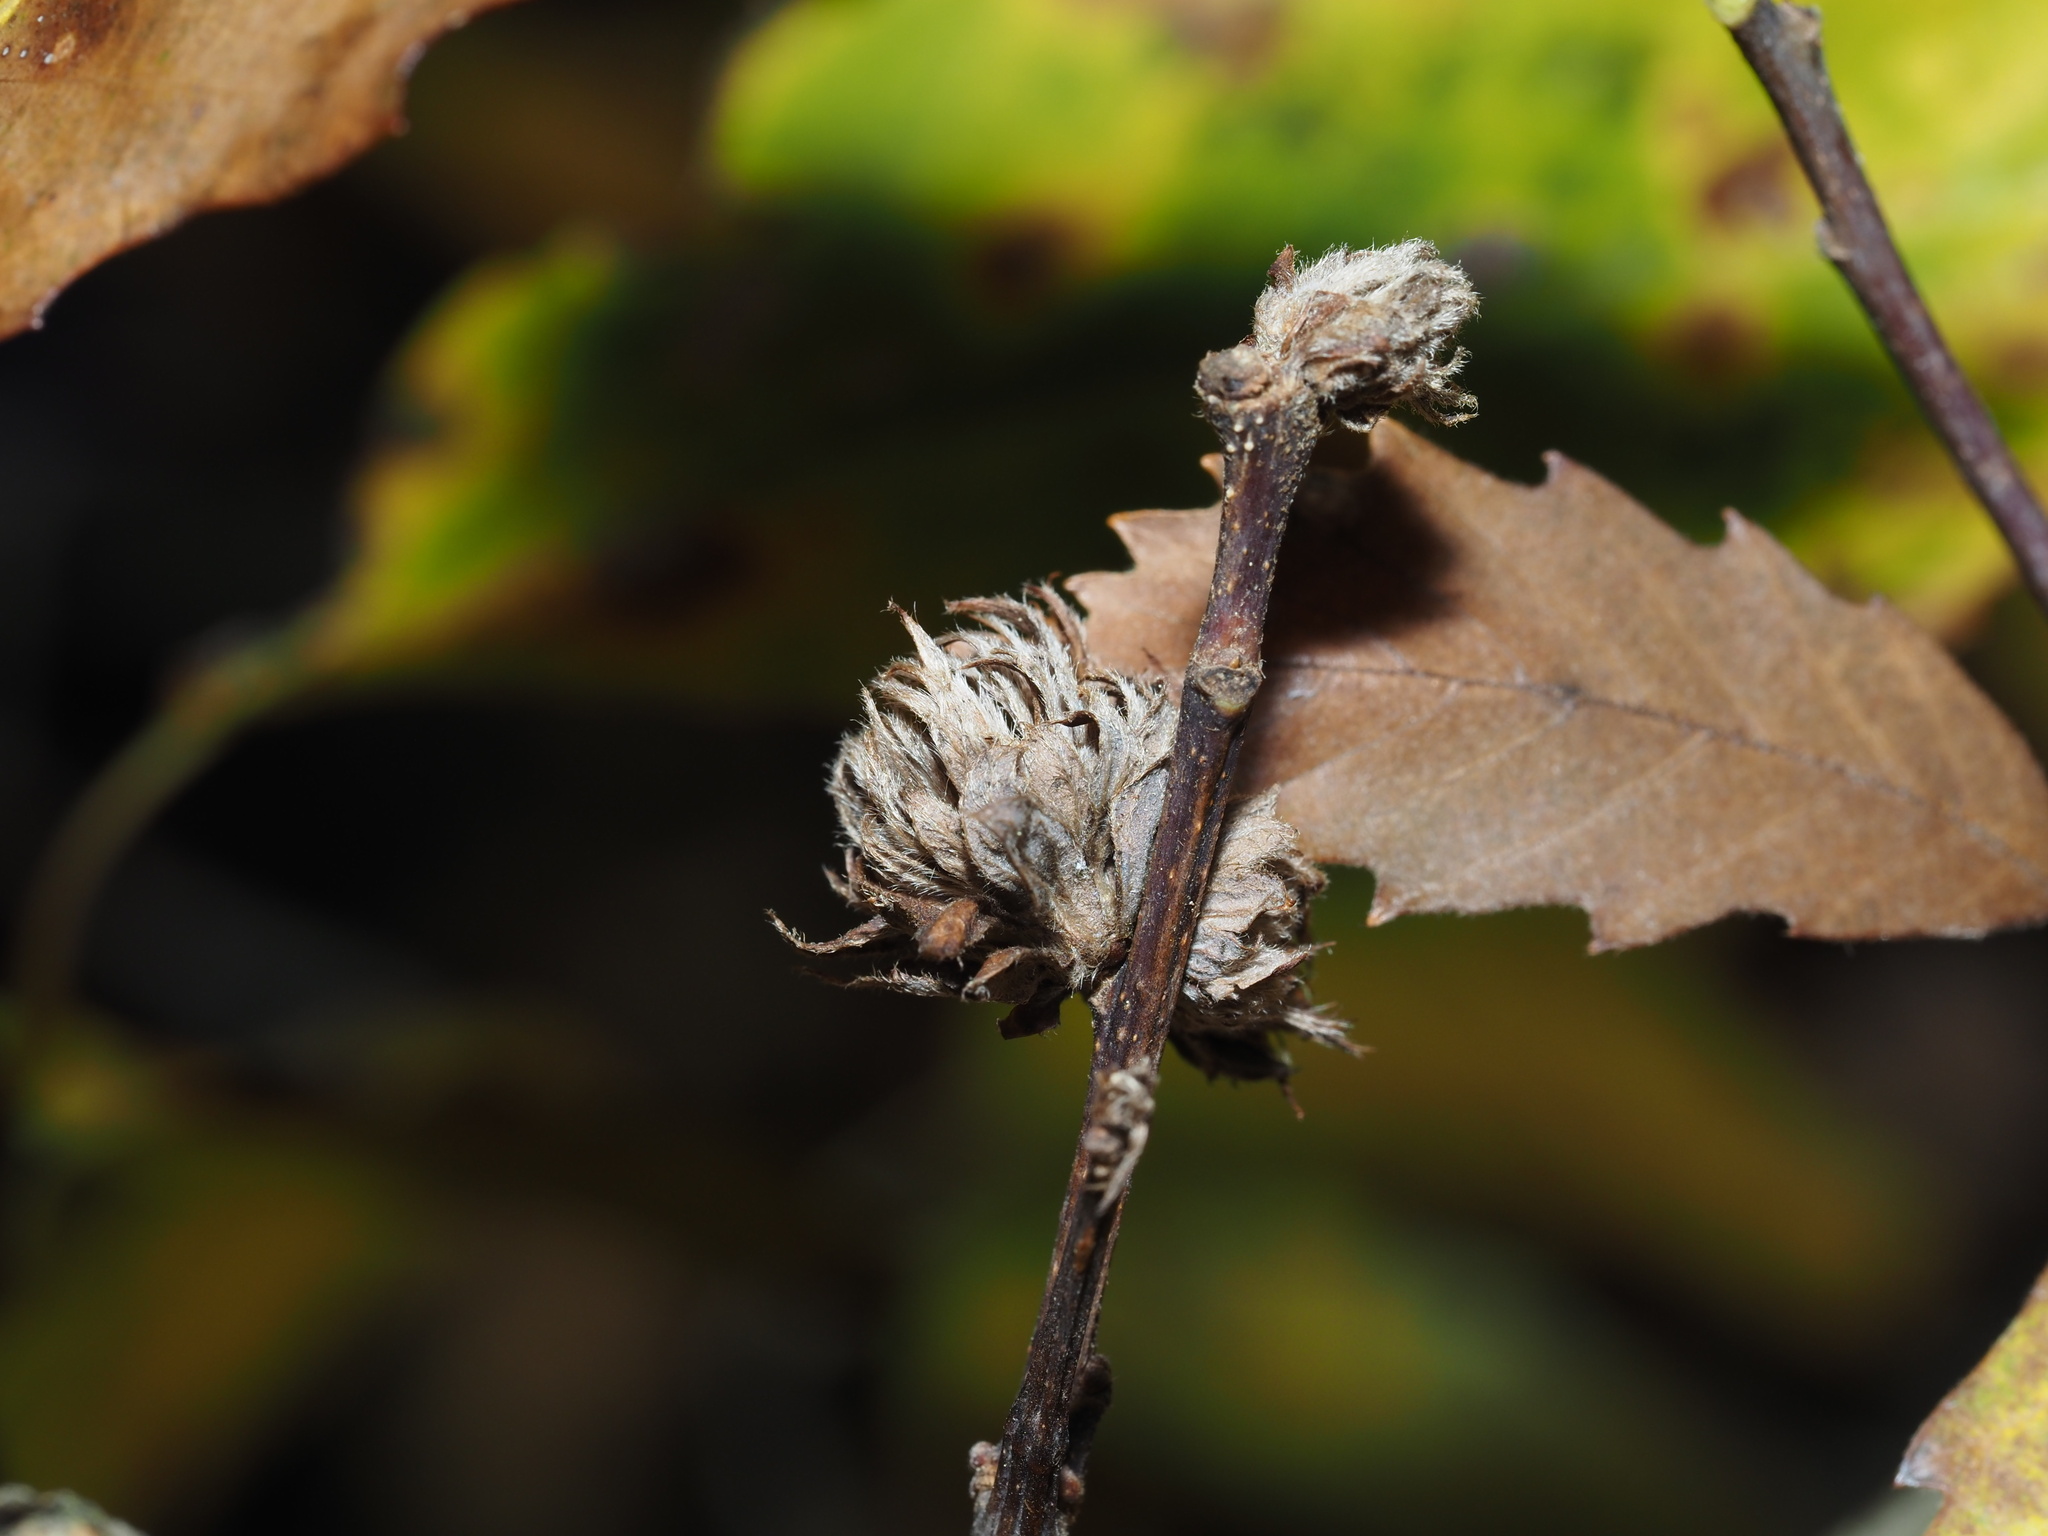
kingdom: Animalia
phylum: Arthropoda
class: Insecta
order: Hymenoptera
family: Cynipidae
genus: Andricus
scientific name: Andricus
